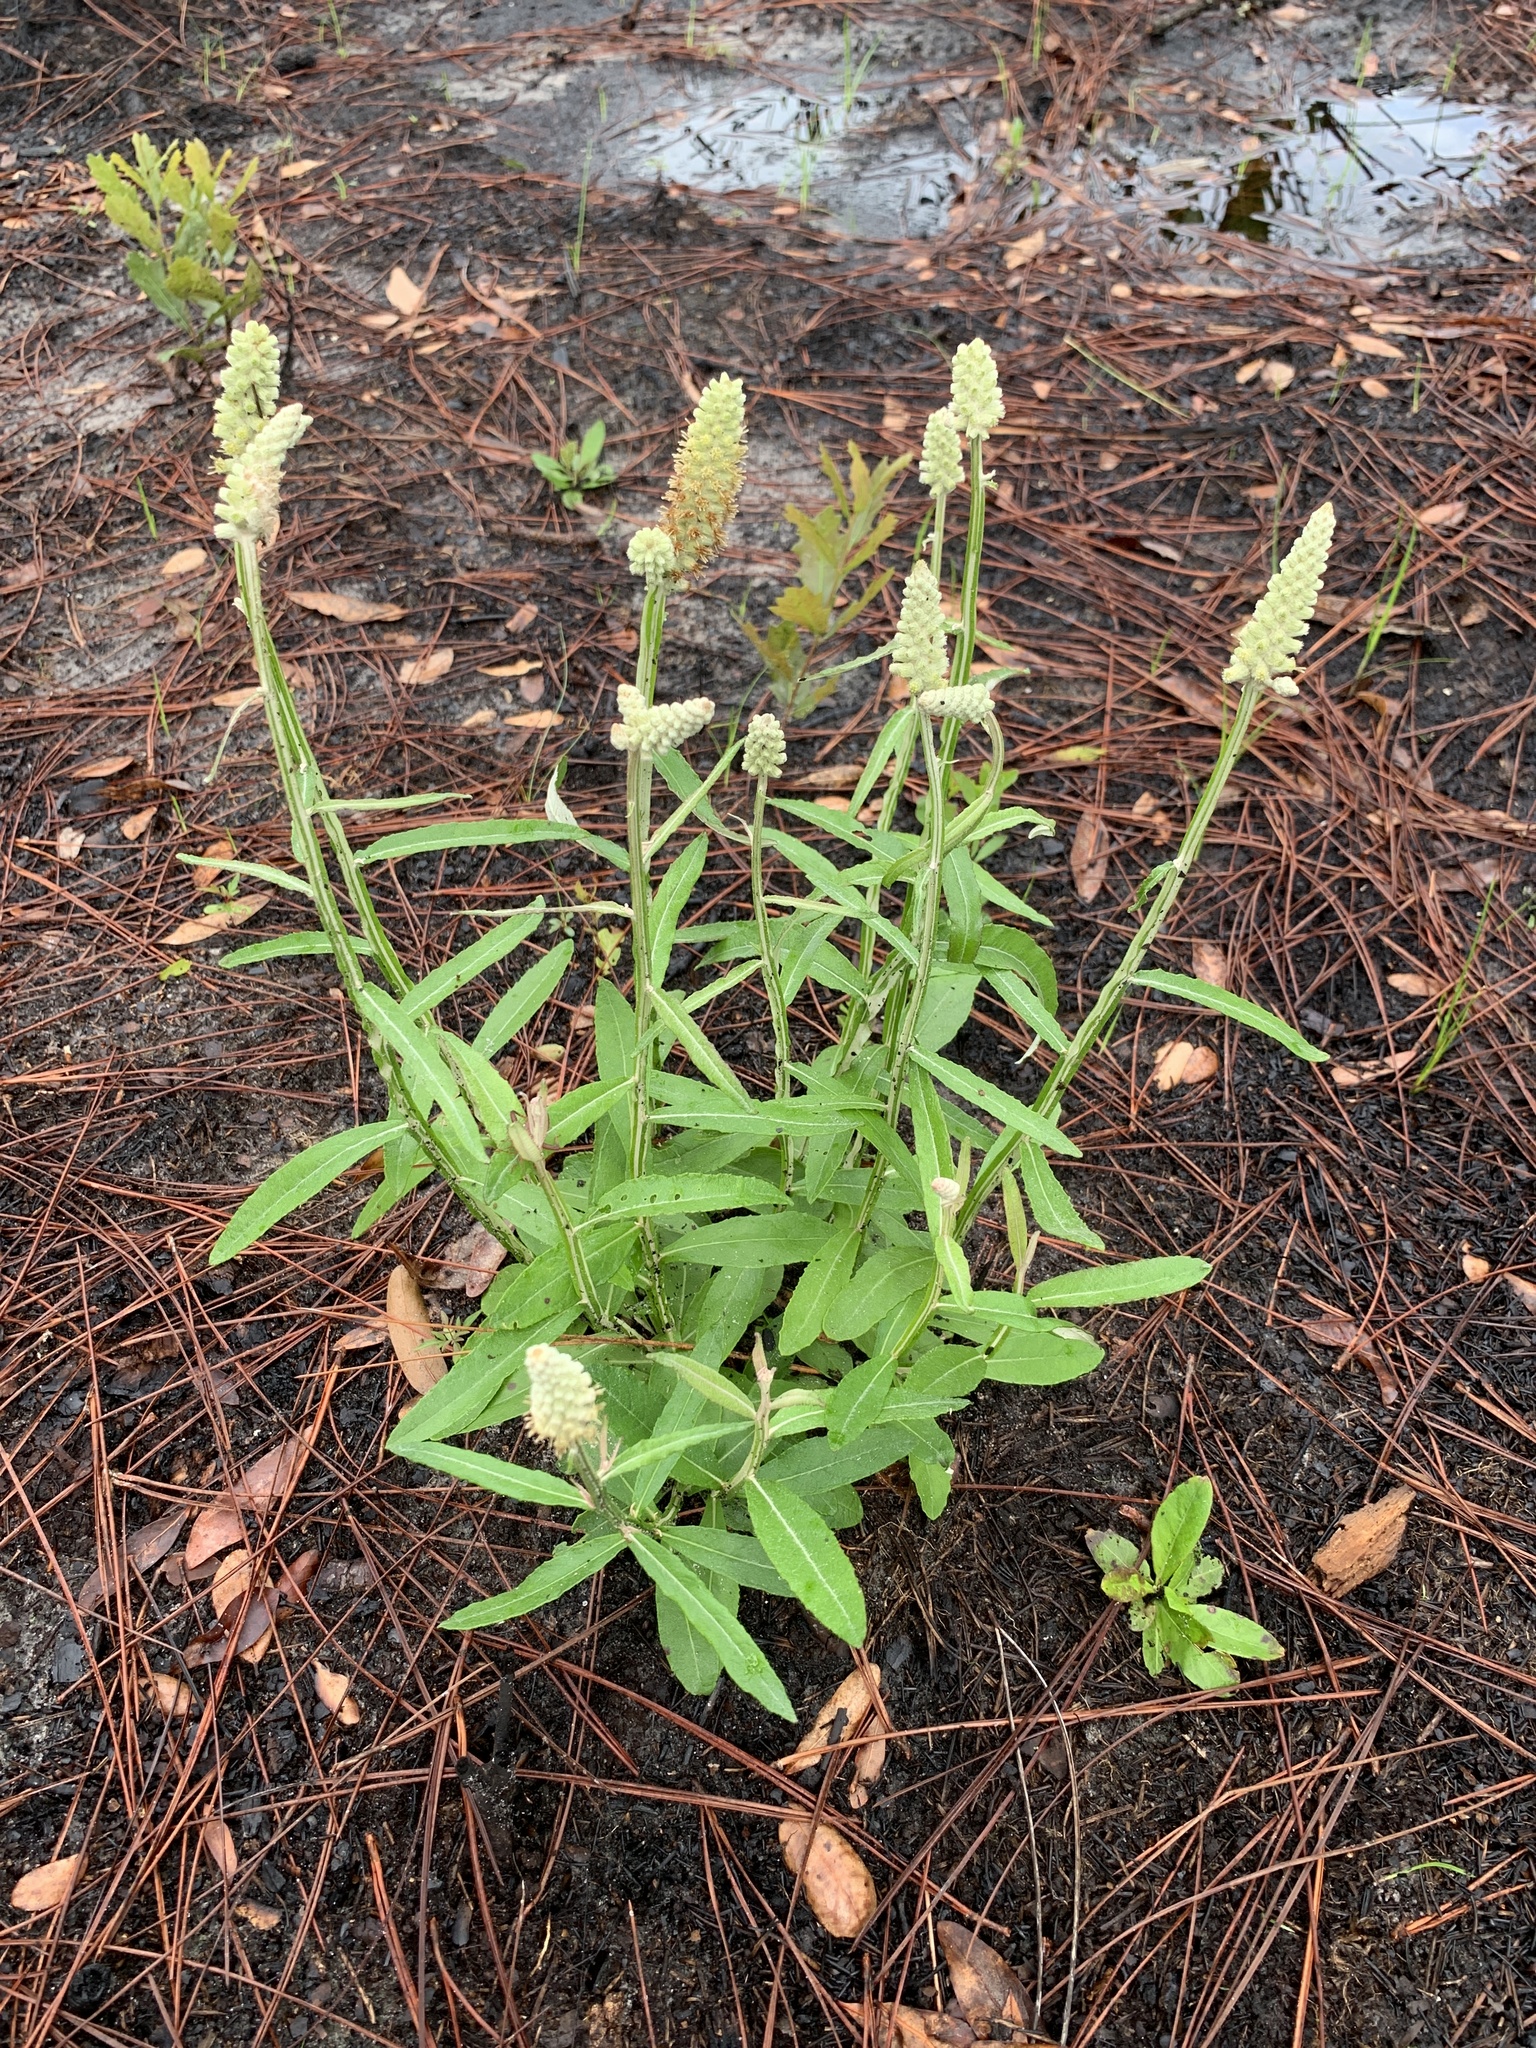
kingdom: Plantae
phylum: Tracheophyta
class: Magnoliopsida
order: Asterales
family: Asteraceae
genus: Pterocaulon
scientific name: Pterocaulon pycnostachyum
